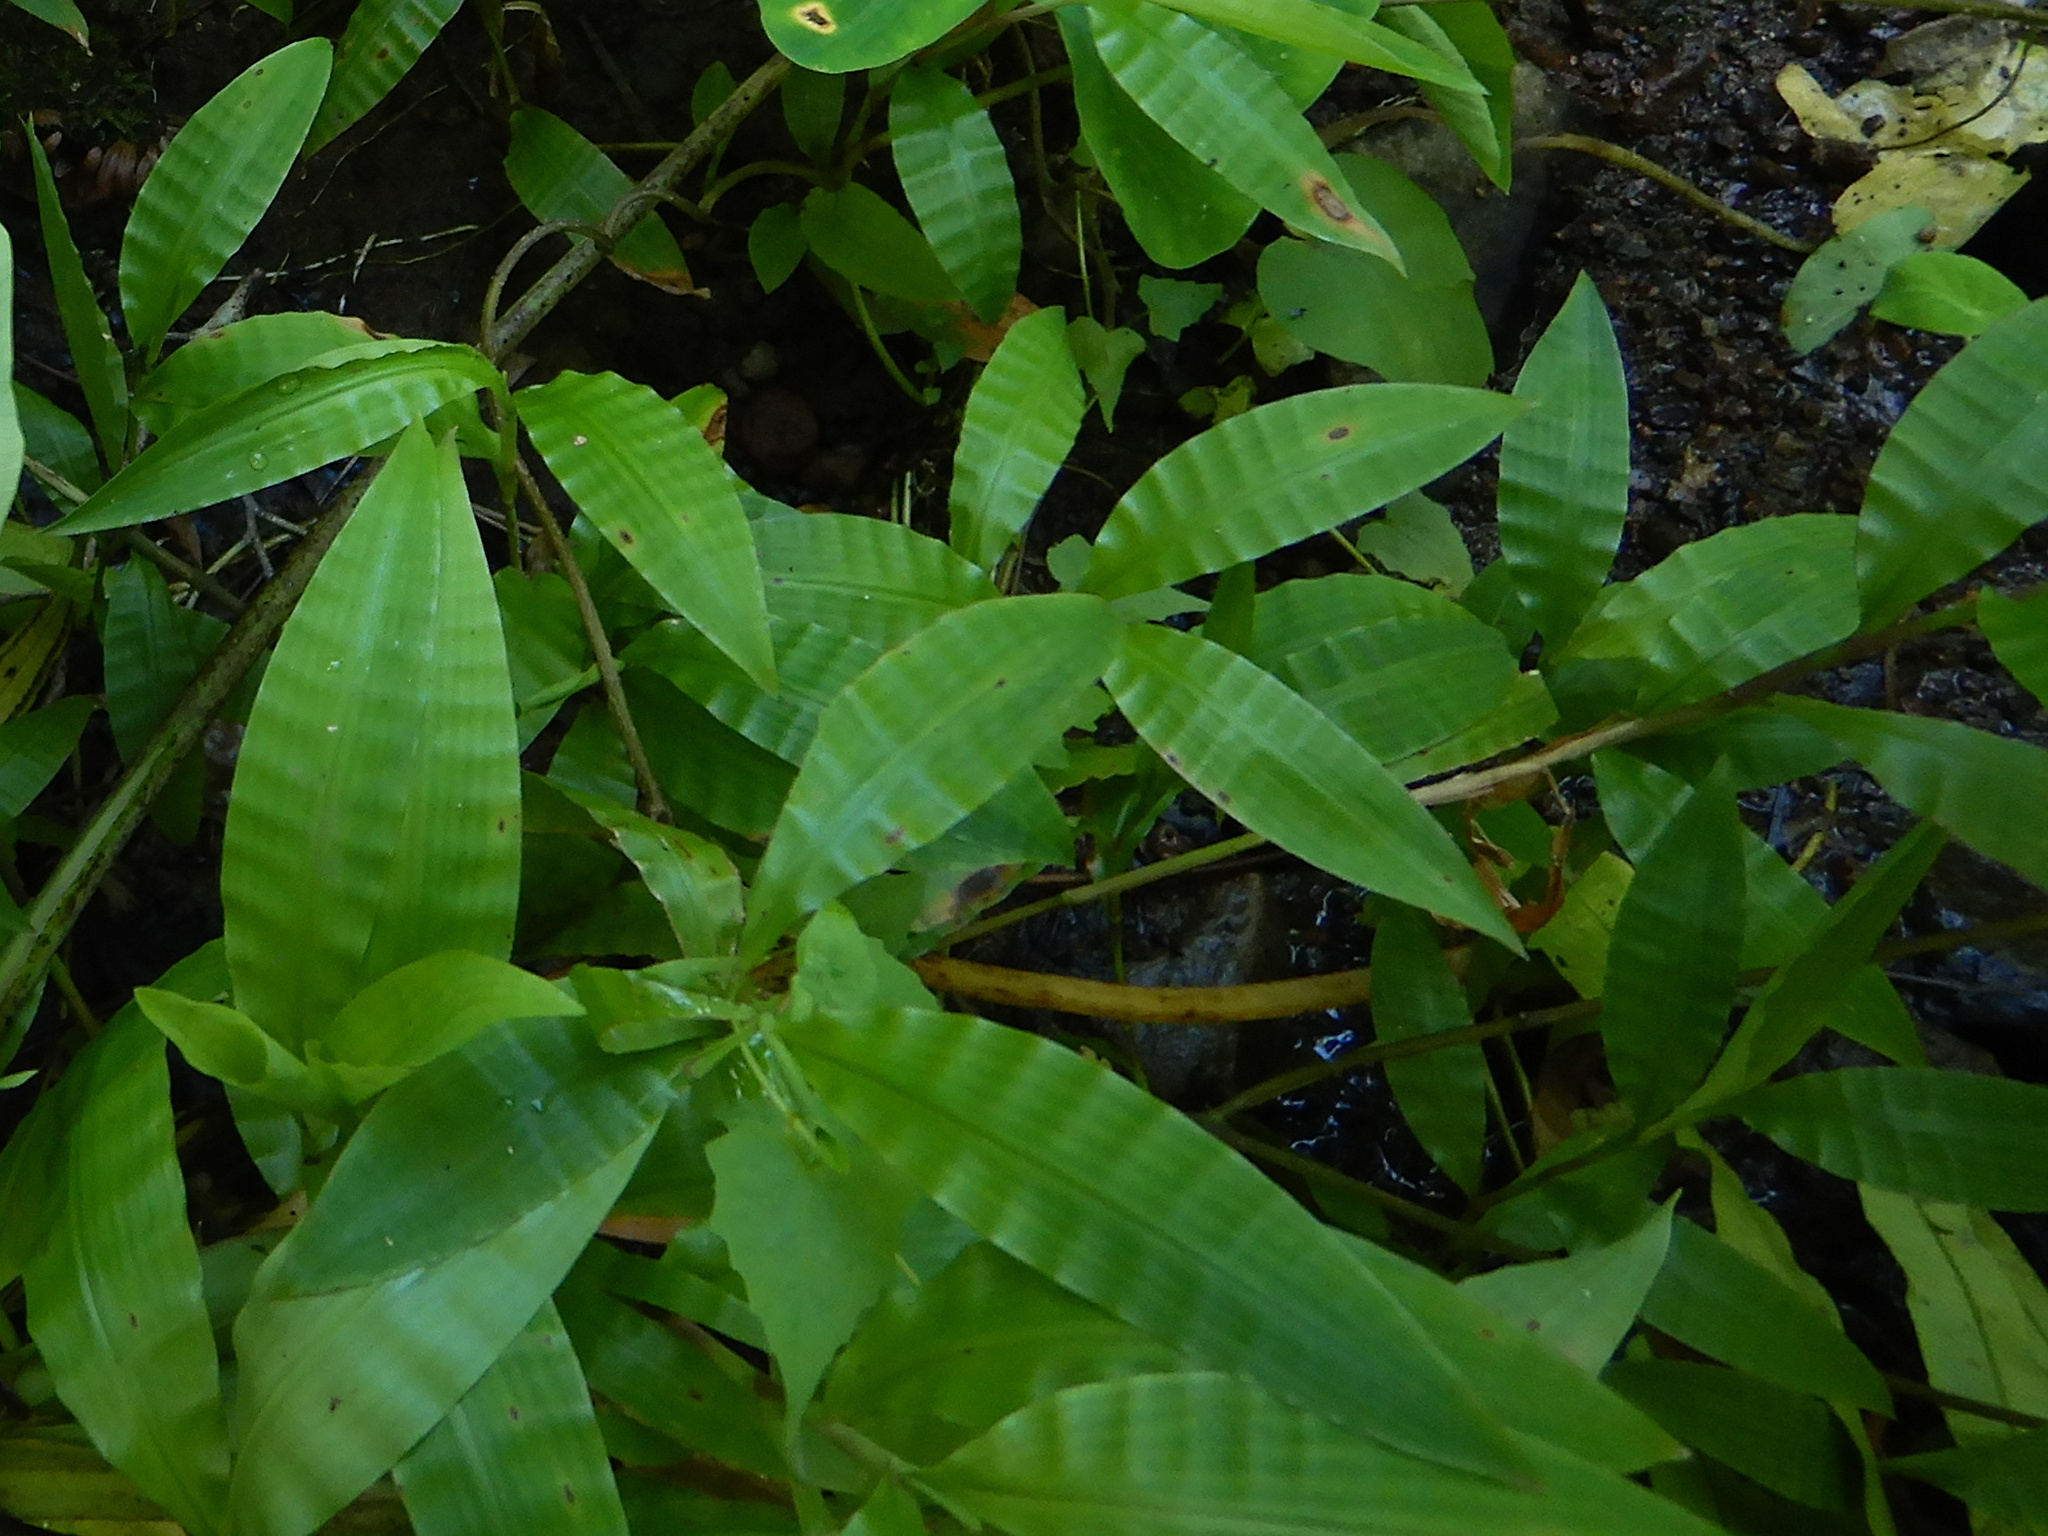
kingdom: Plantae
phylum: Tracheophyta
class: Liliopsida
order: Poales
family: Poaceae
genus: Centotheca
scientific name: Centotheca lappacea
